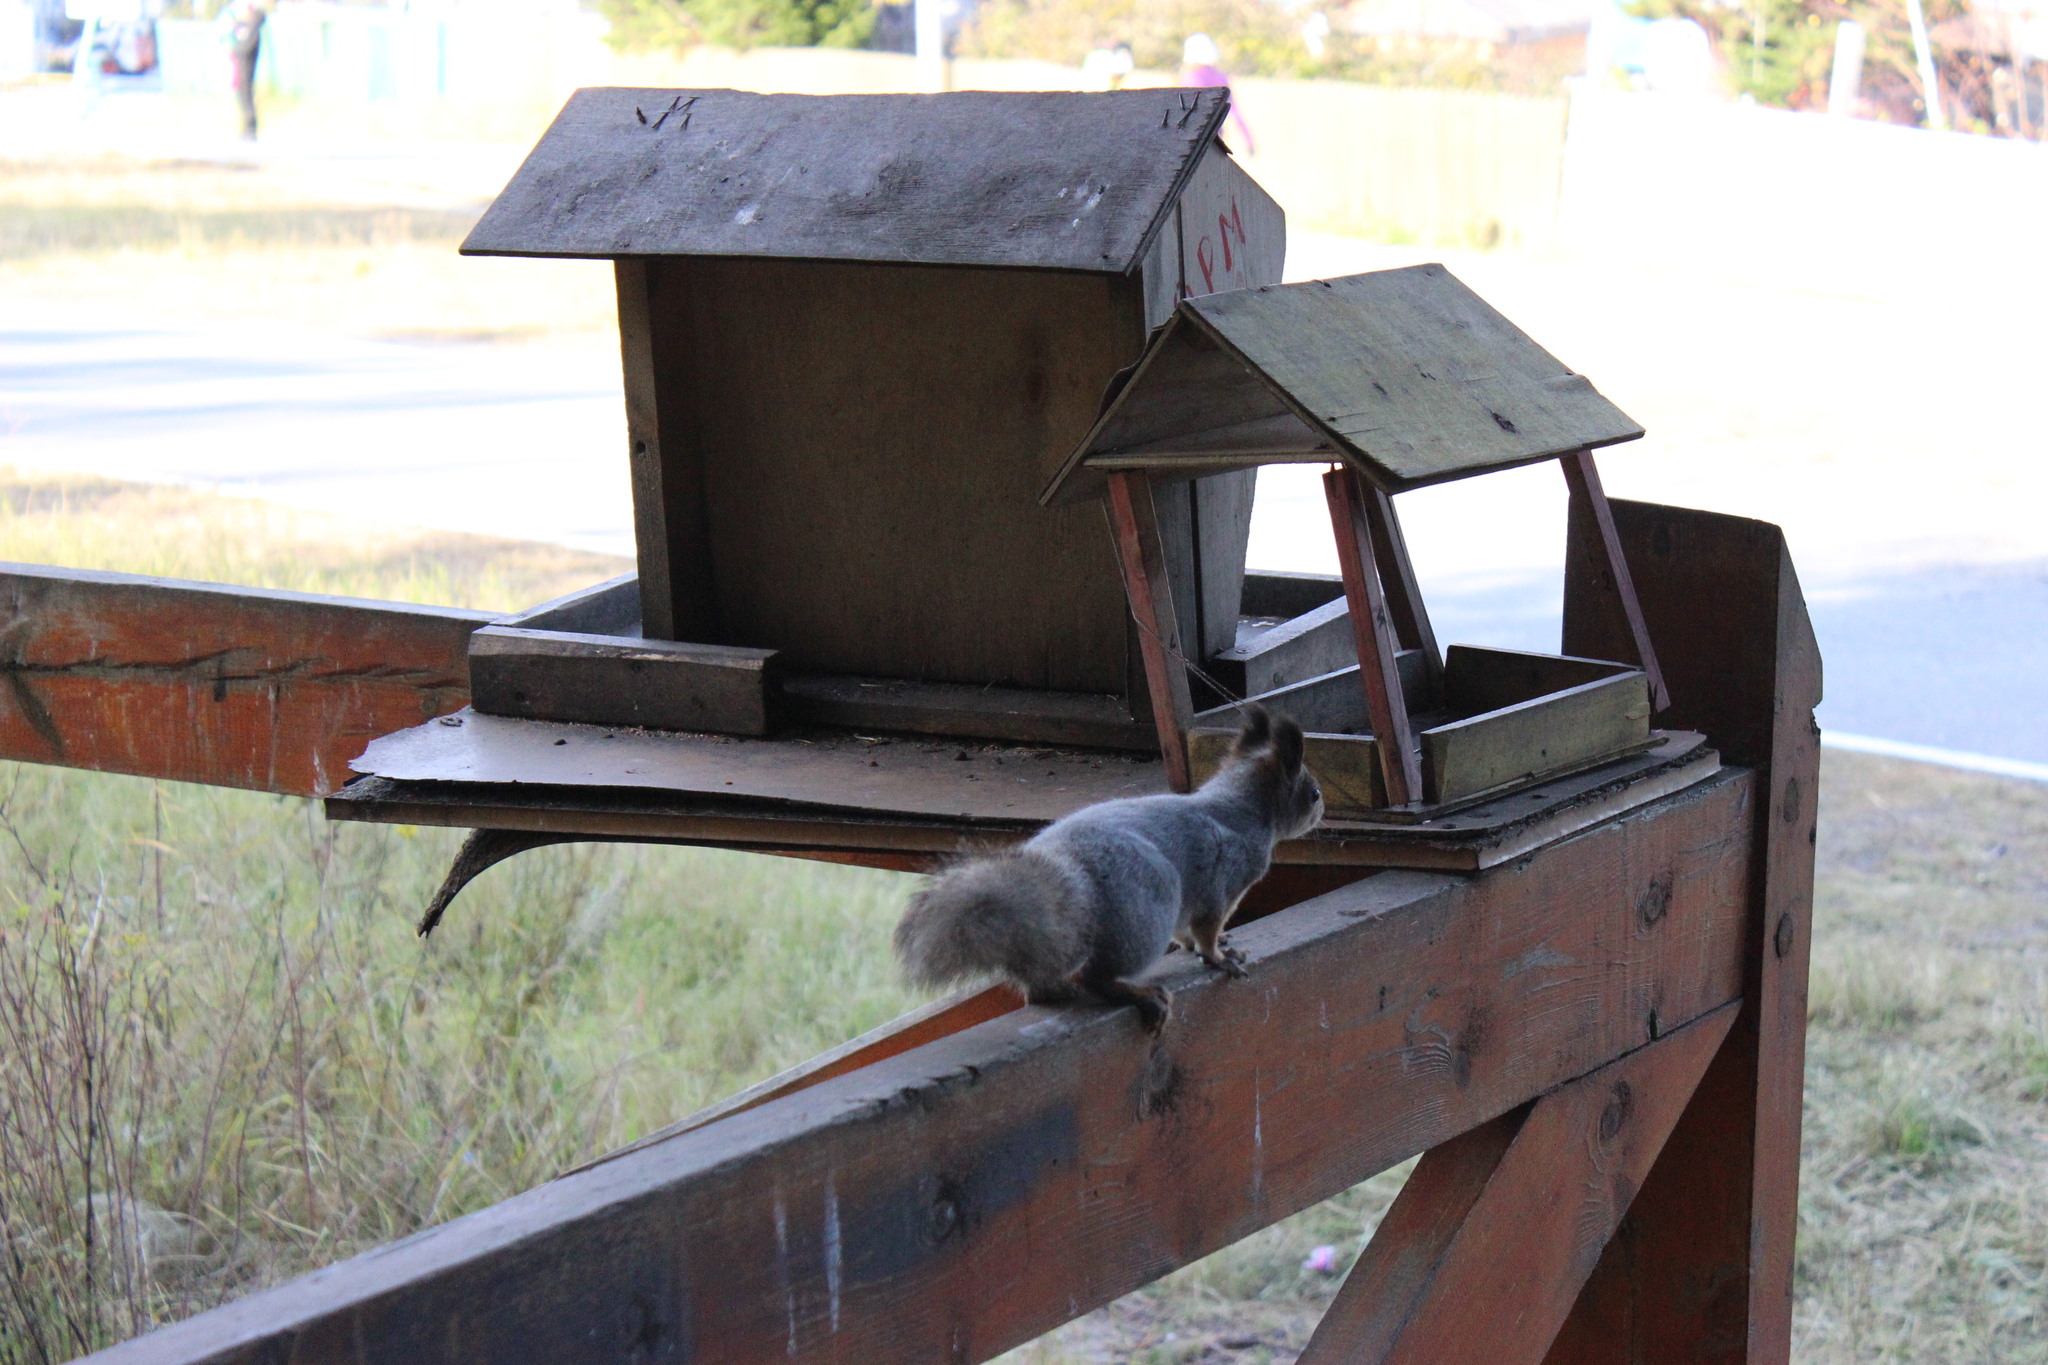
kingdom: Animalia
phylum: Chordata
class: Mammalia
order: Rodentia
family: Sciuridae
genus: Sciurus
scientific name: Sciurus vulgaris
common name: Eurasian red squirrel
